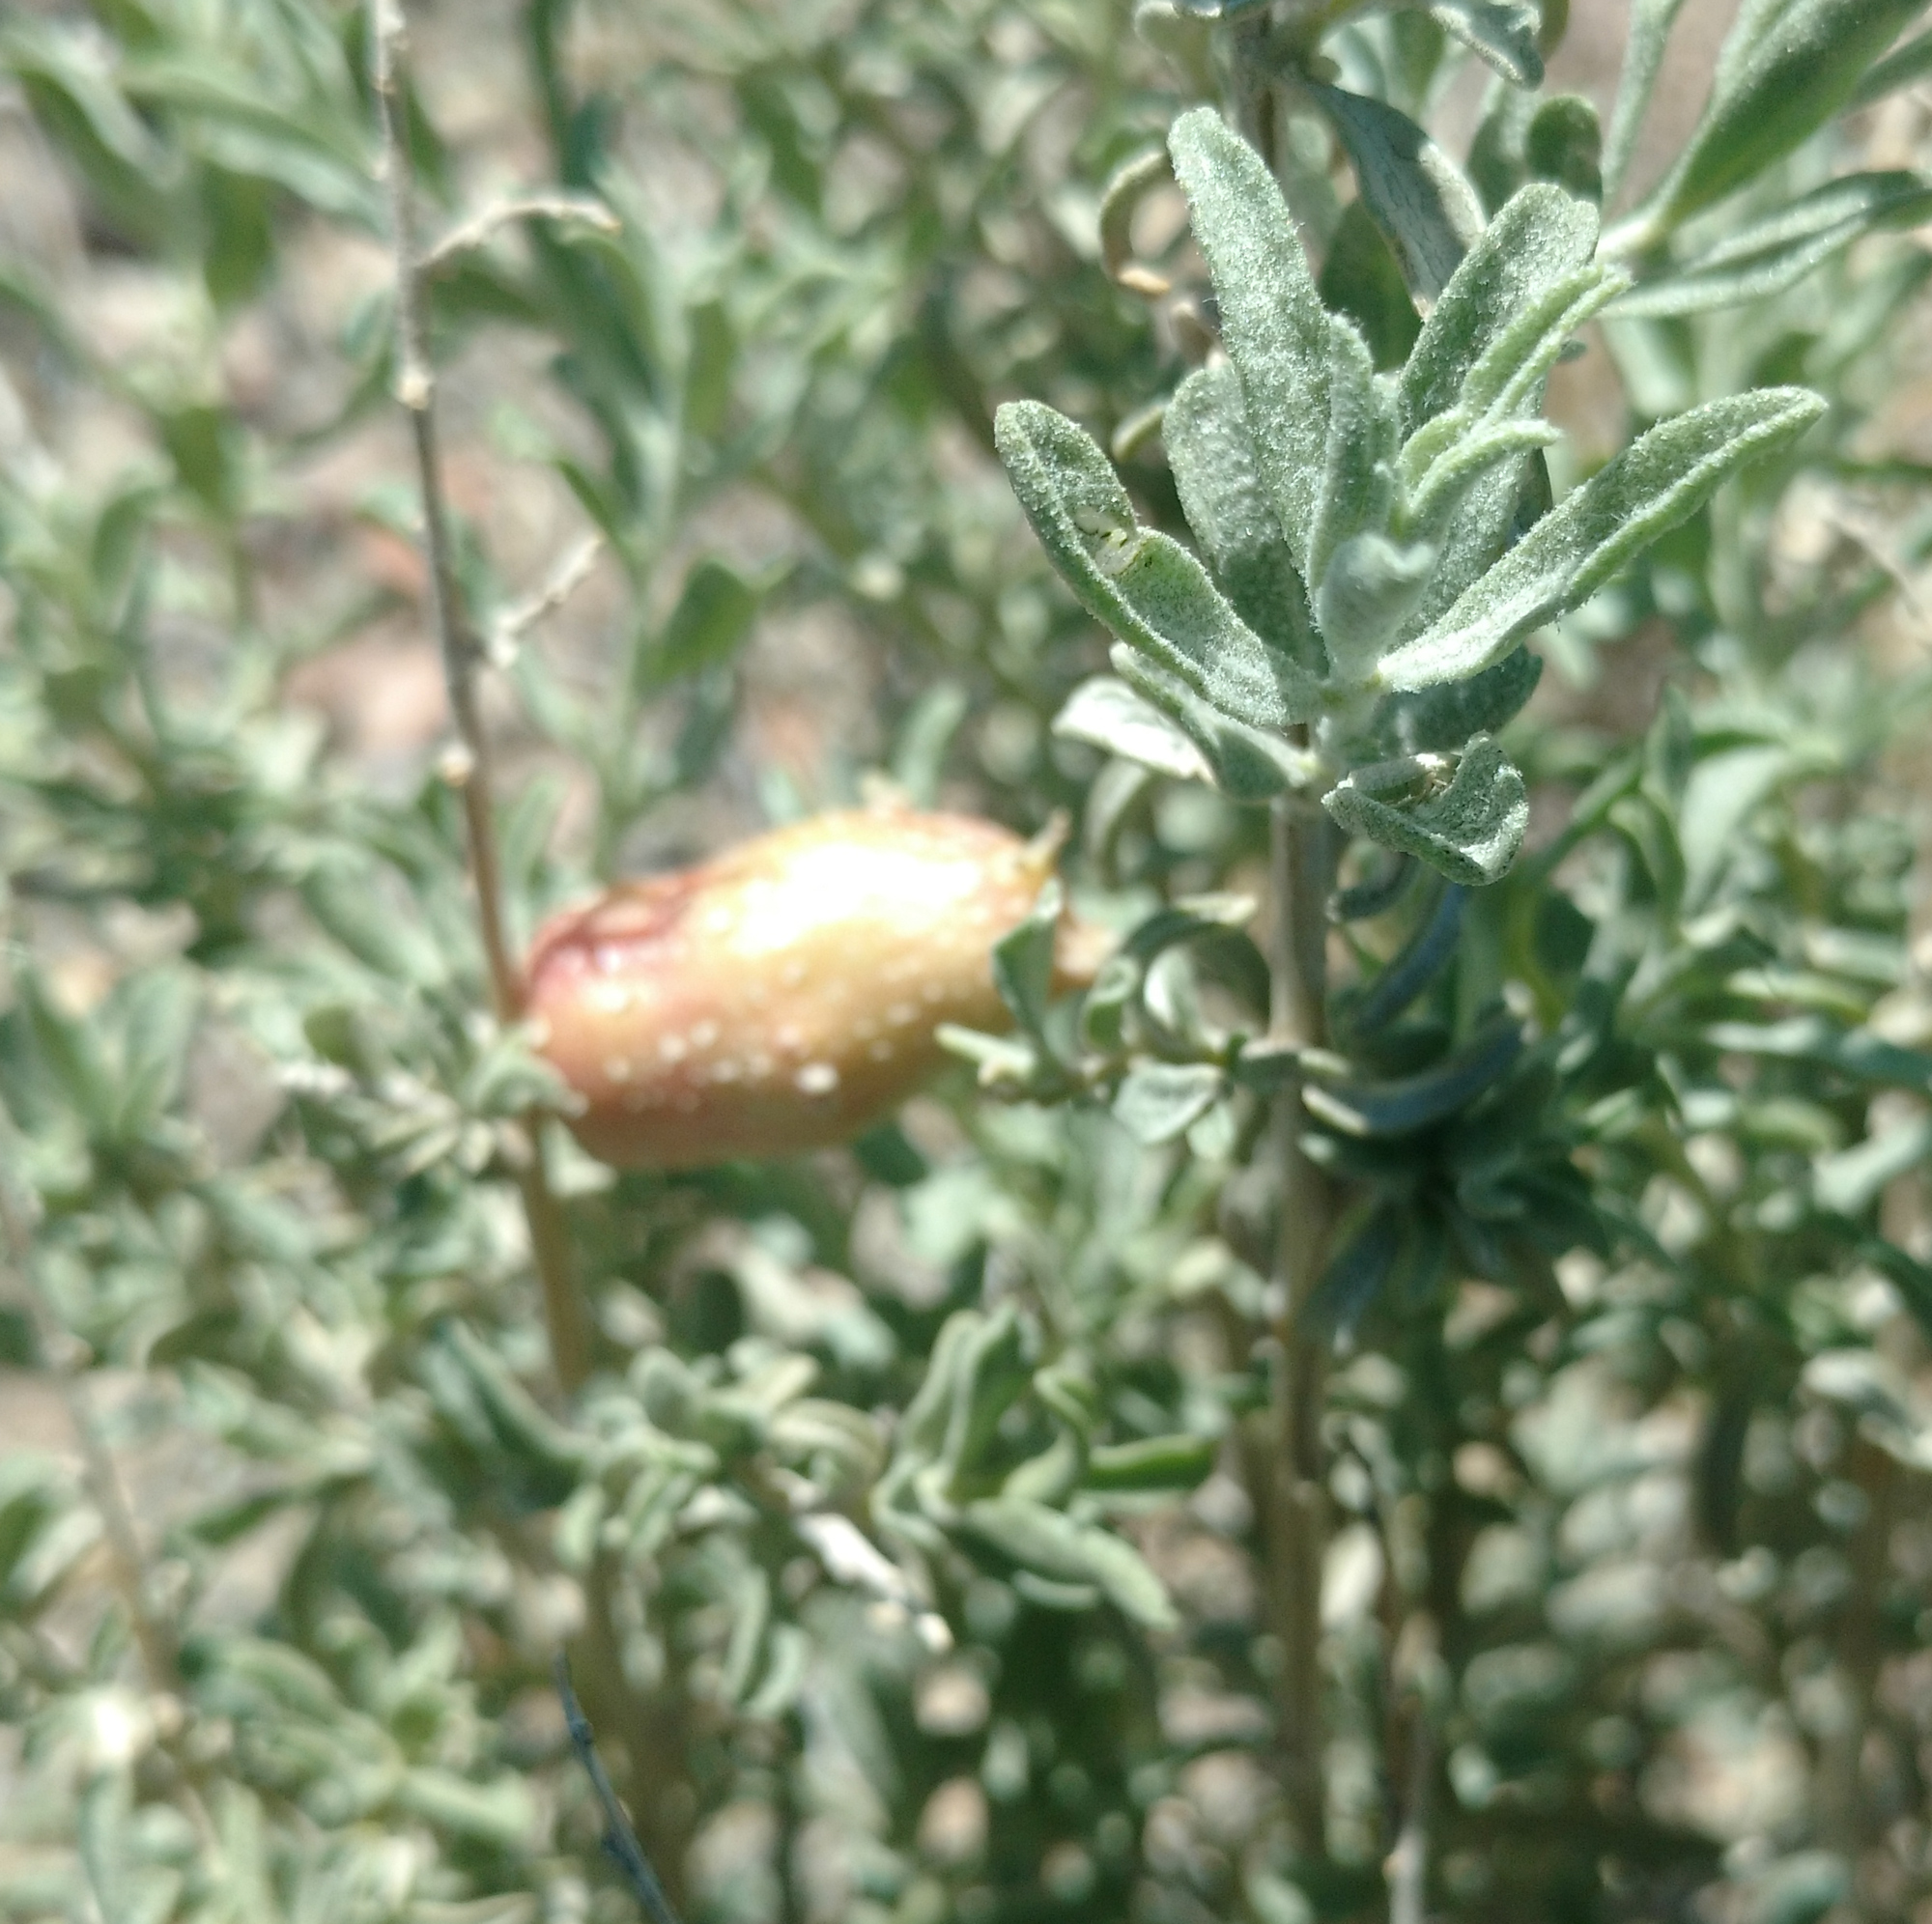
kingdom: Animalia
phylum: Arthropoda
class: Insecta
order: Diptera
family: Cecidomyiidae
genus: Asphondylia
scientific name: Asphondylia atriplicis
